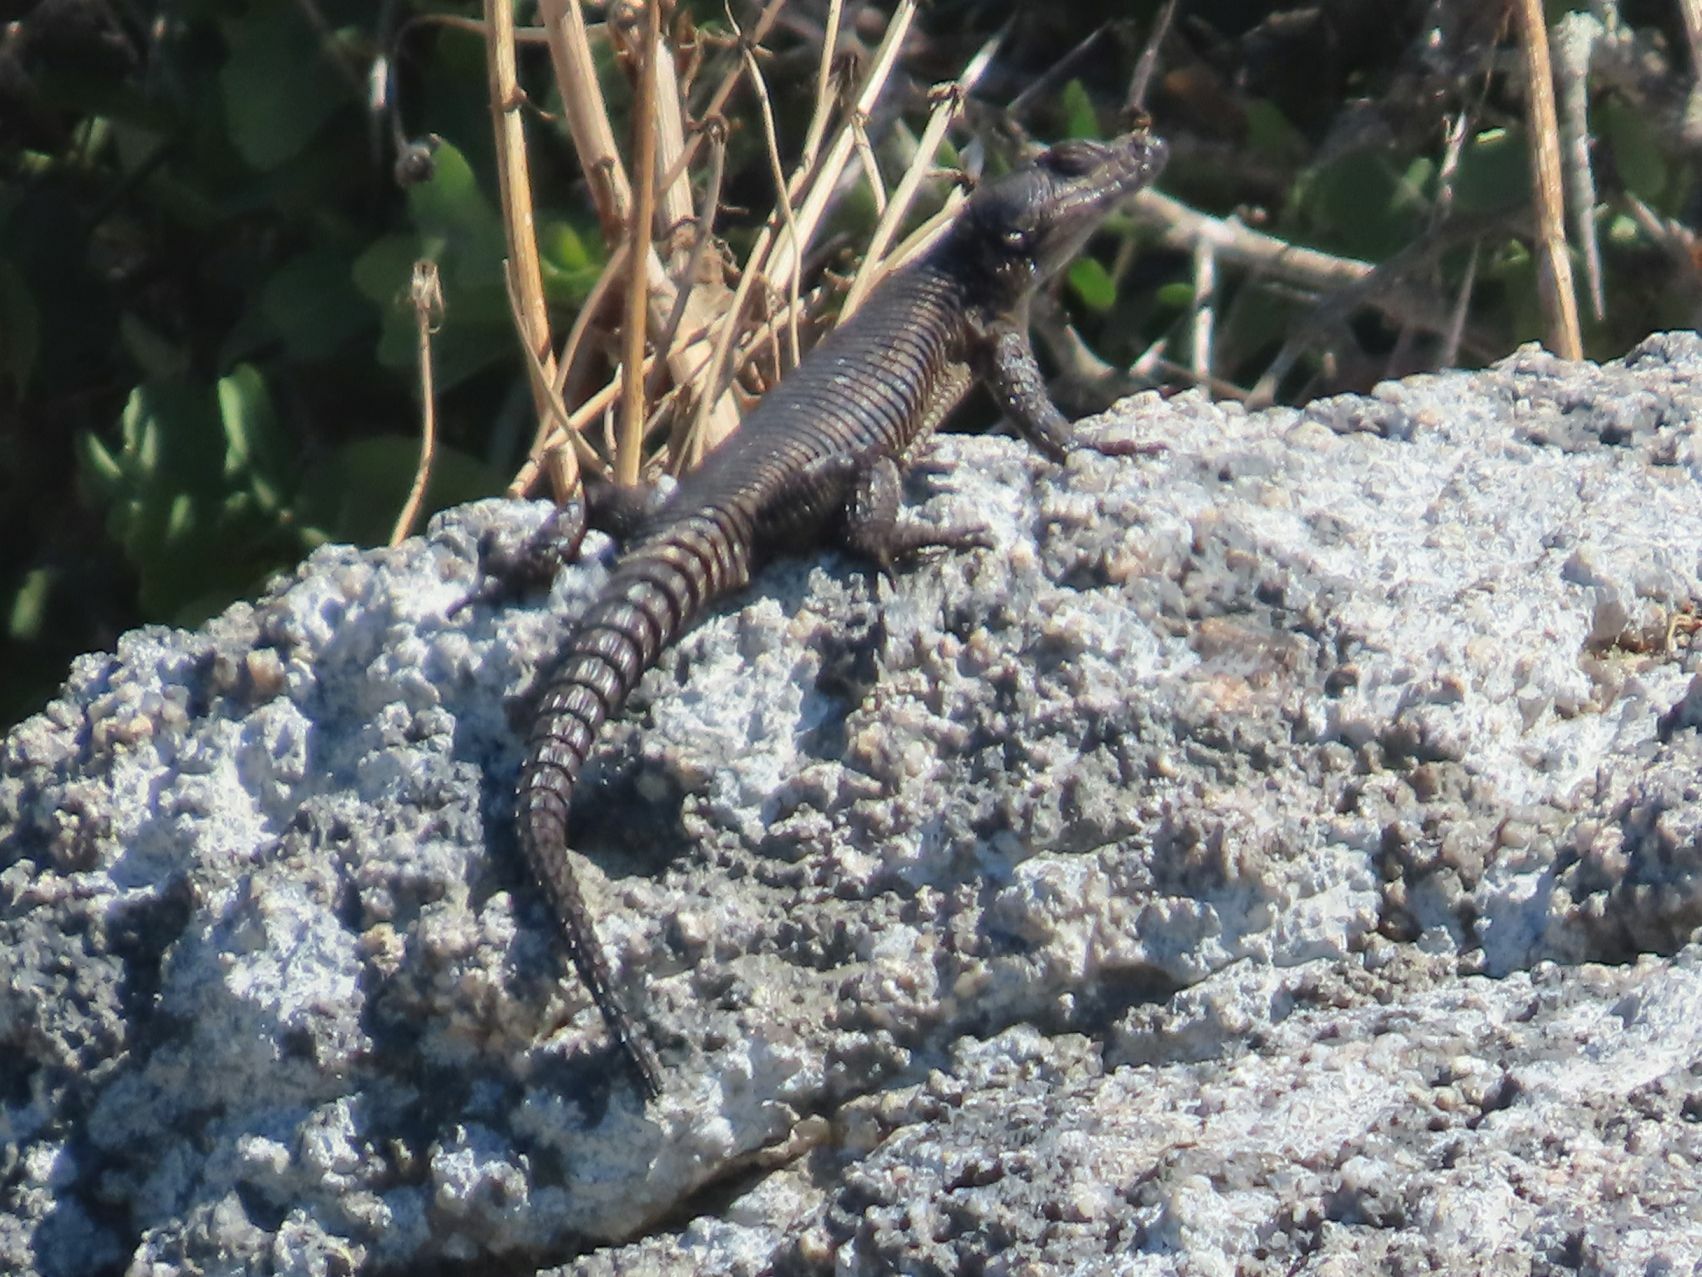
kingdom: Animalia
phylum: Chordata
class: Squamata
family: Cordylidae
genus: Karusasaurus
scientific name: Karusasaurus polyzonus
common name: Karoo girdled lizard
